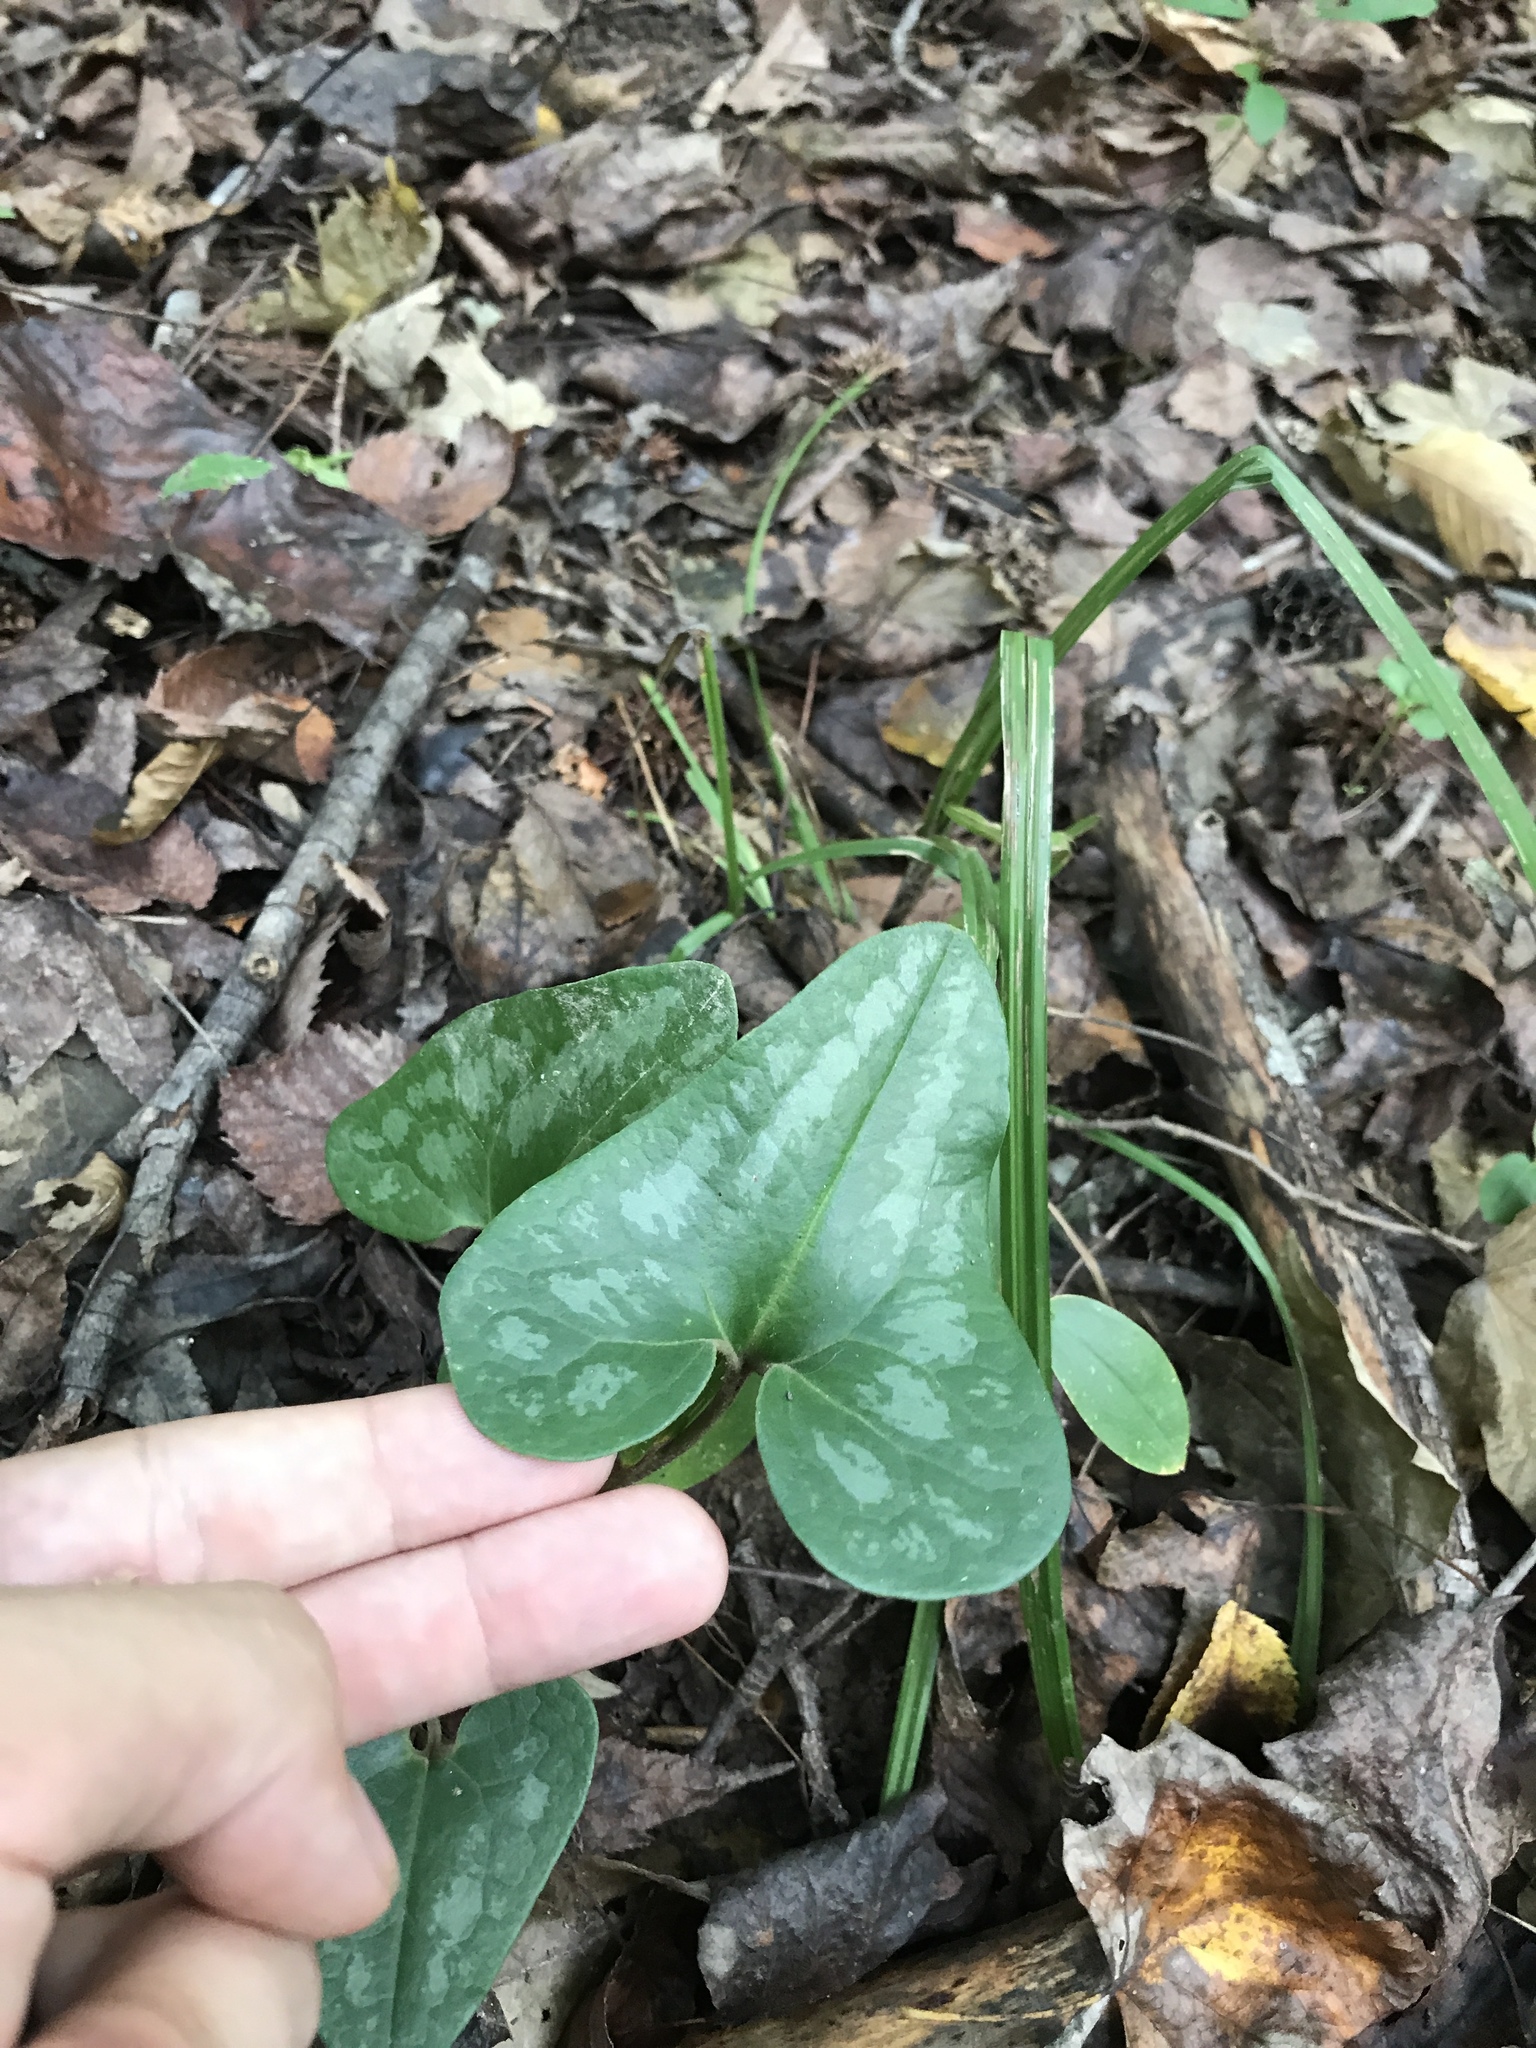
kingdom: Plantae
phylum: Tracheophyta
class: Magnoliopsida
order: Piperales
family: Aristolochiaceae
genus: Hexastylis
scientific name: Hexastylis arifolia
